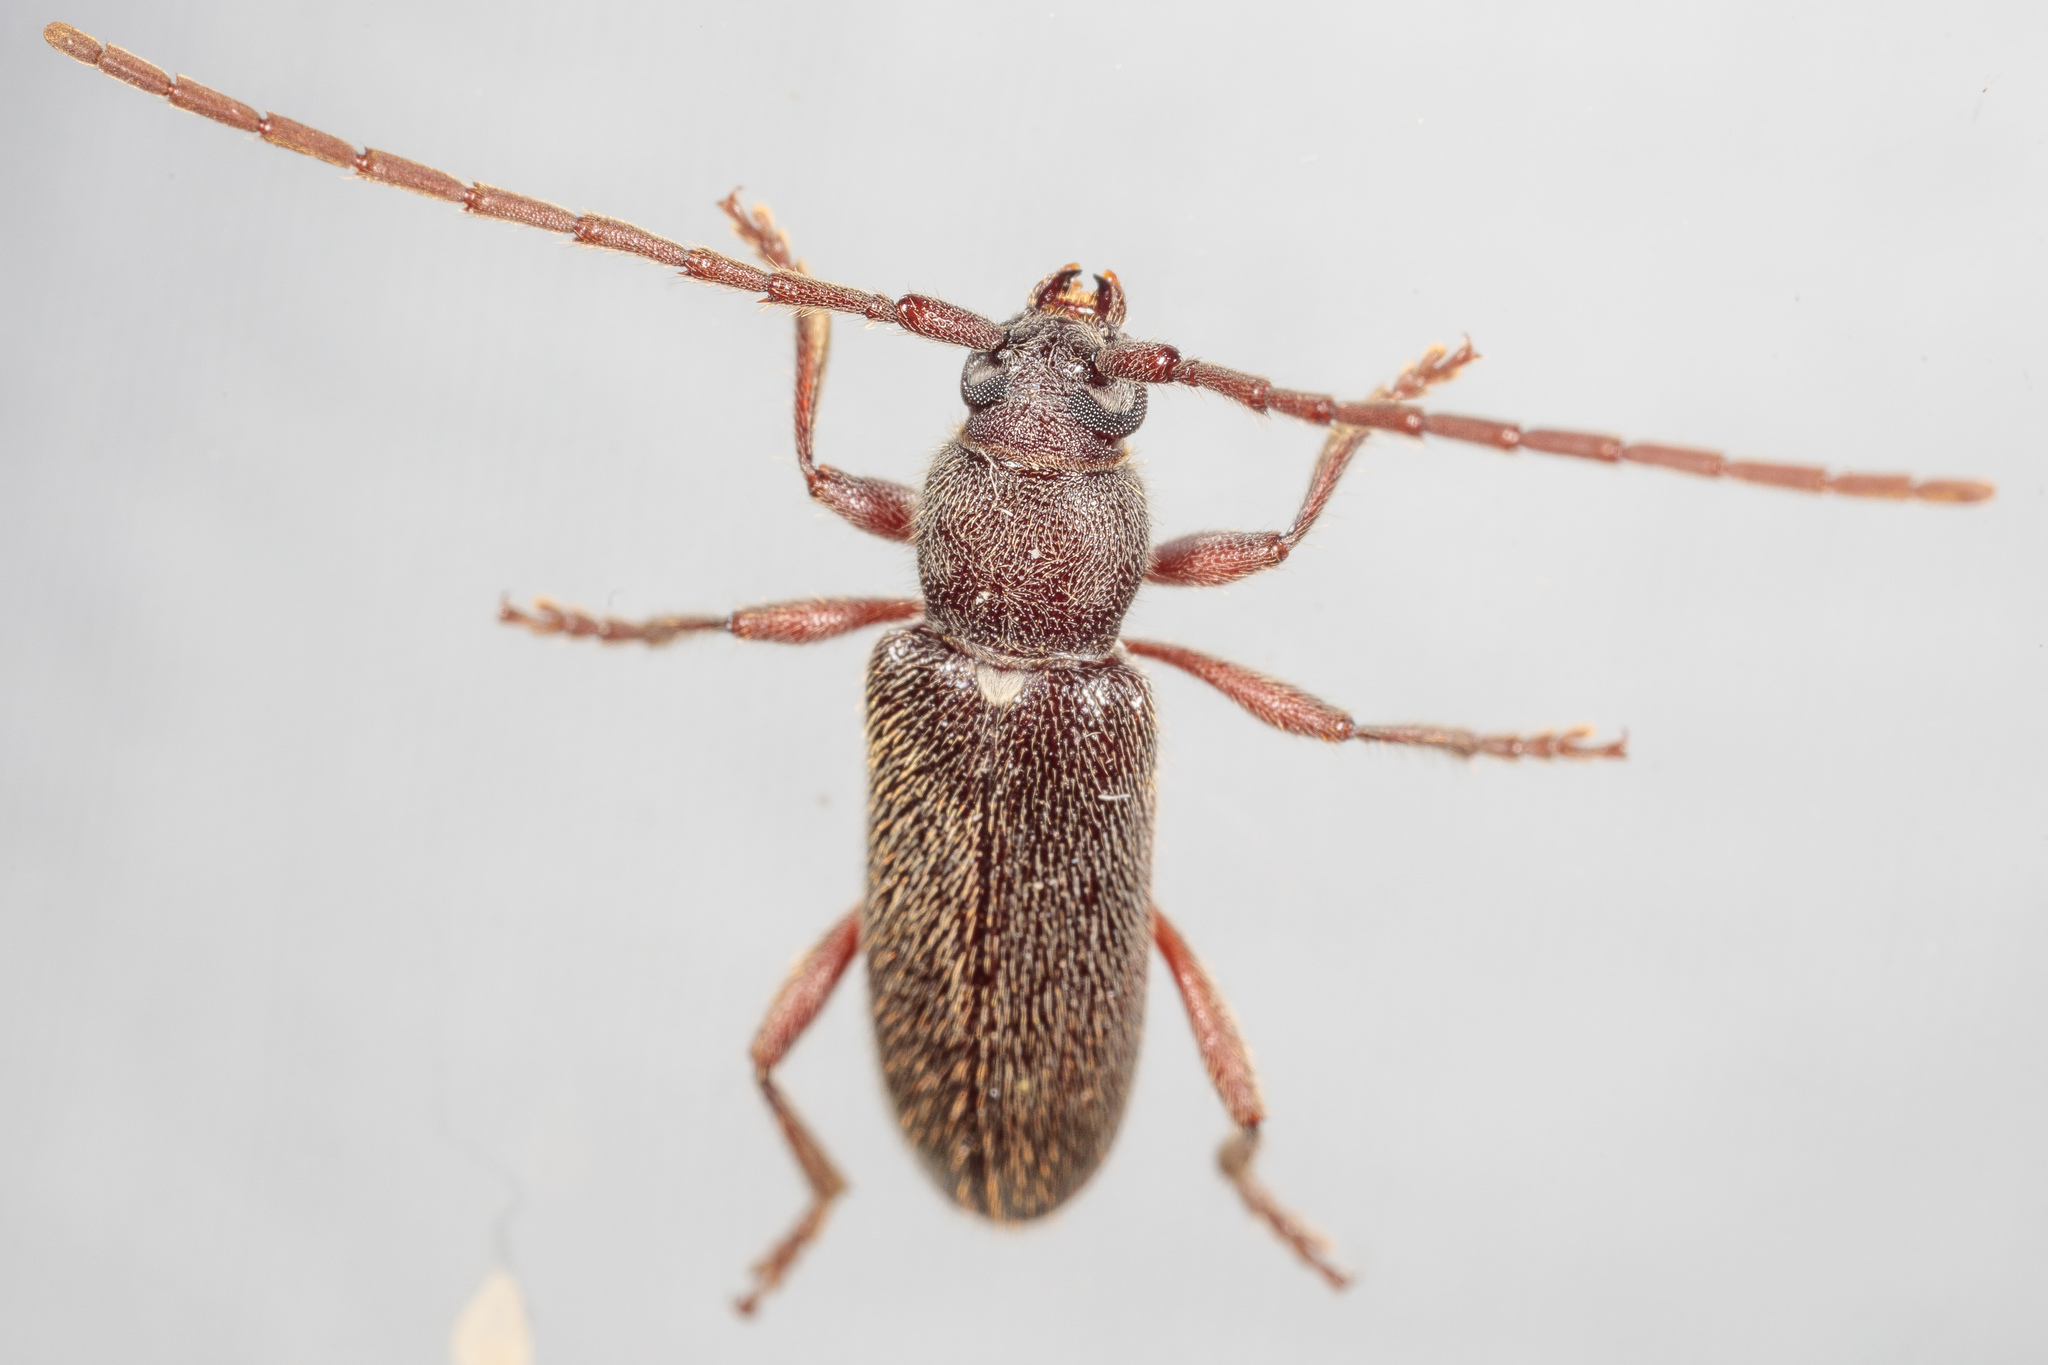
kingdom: Animalia
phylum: Arthropoda
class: Insecta
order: Coleoptera
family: Cerambycidae
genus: Anelaphus
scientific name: Anelaphus moestus
